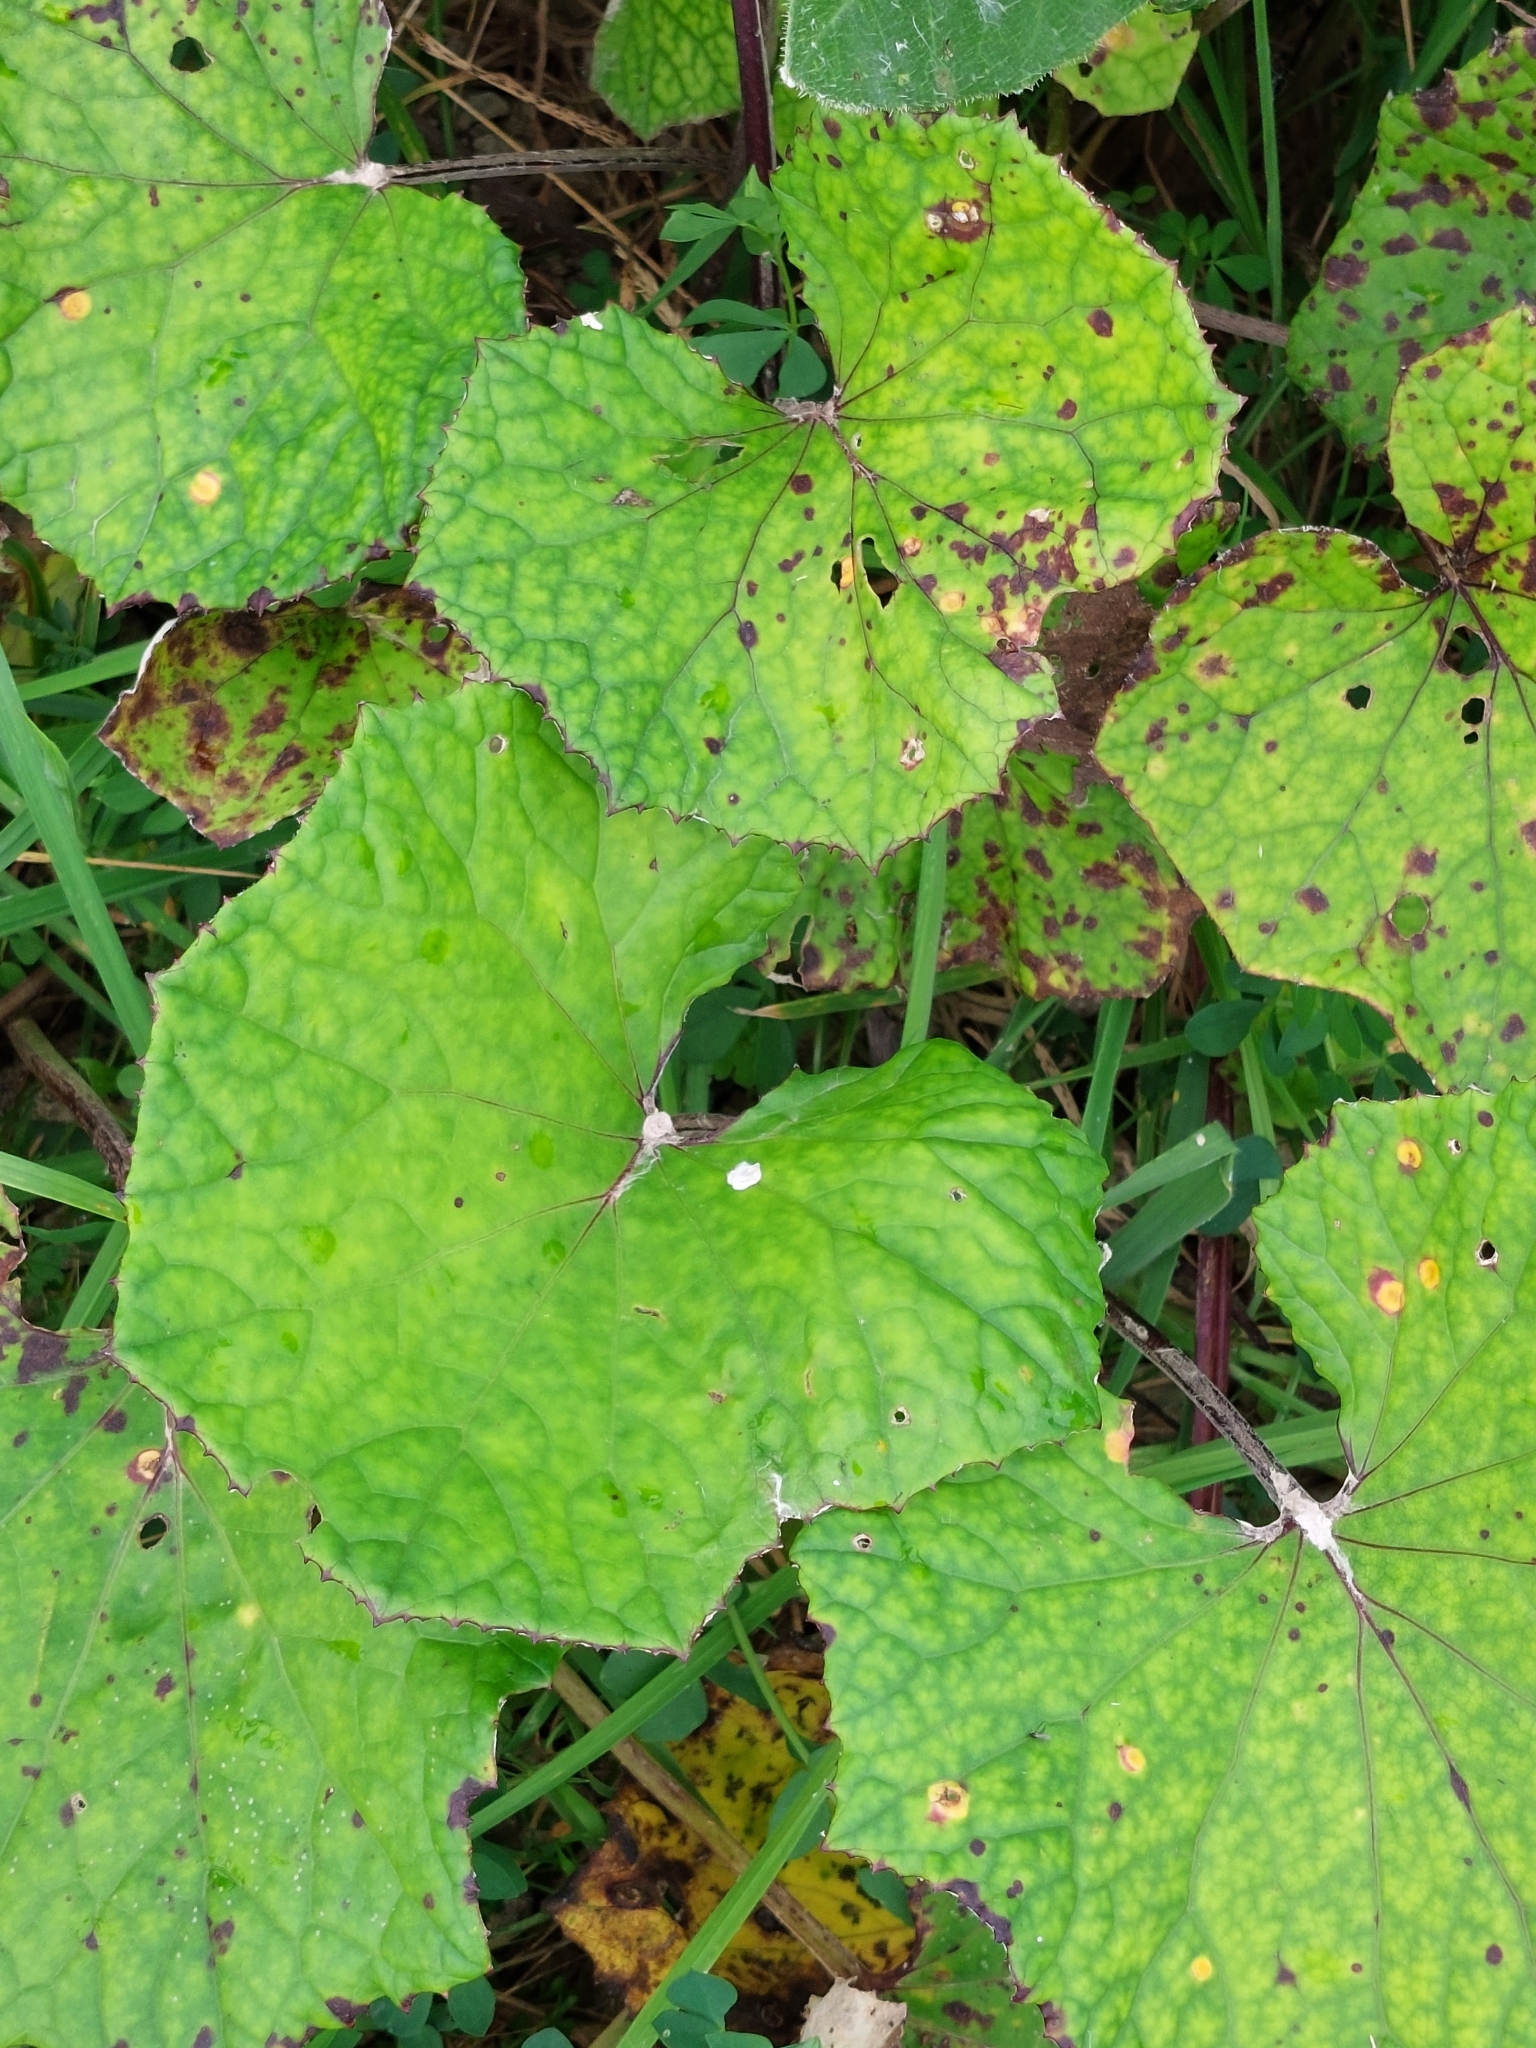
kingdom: Plantae
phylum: Tracheophyta
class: Magnoliopsida
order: Asterales
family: Asteraceae
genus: Tussilago
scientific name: Tussilago farfara
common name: Coltsfoot
